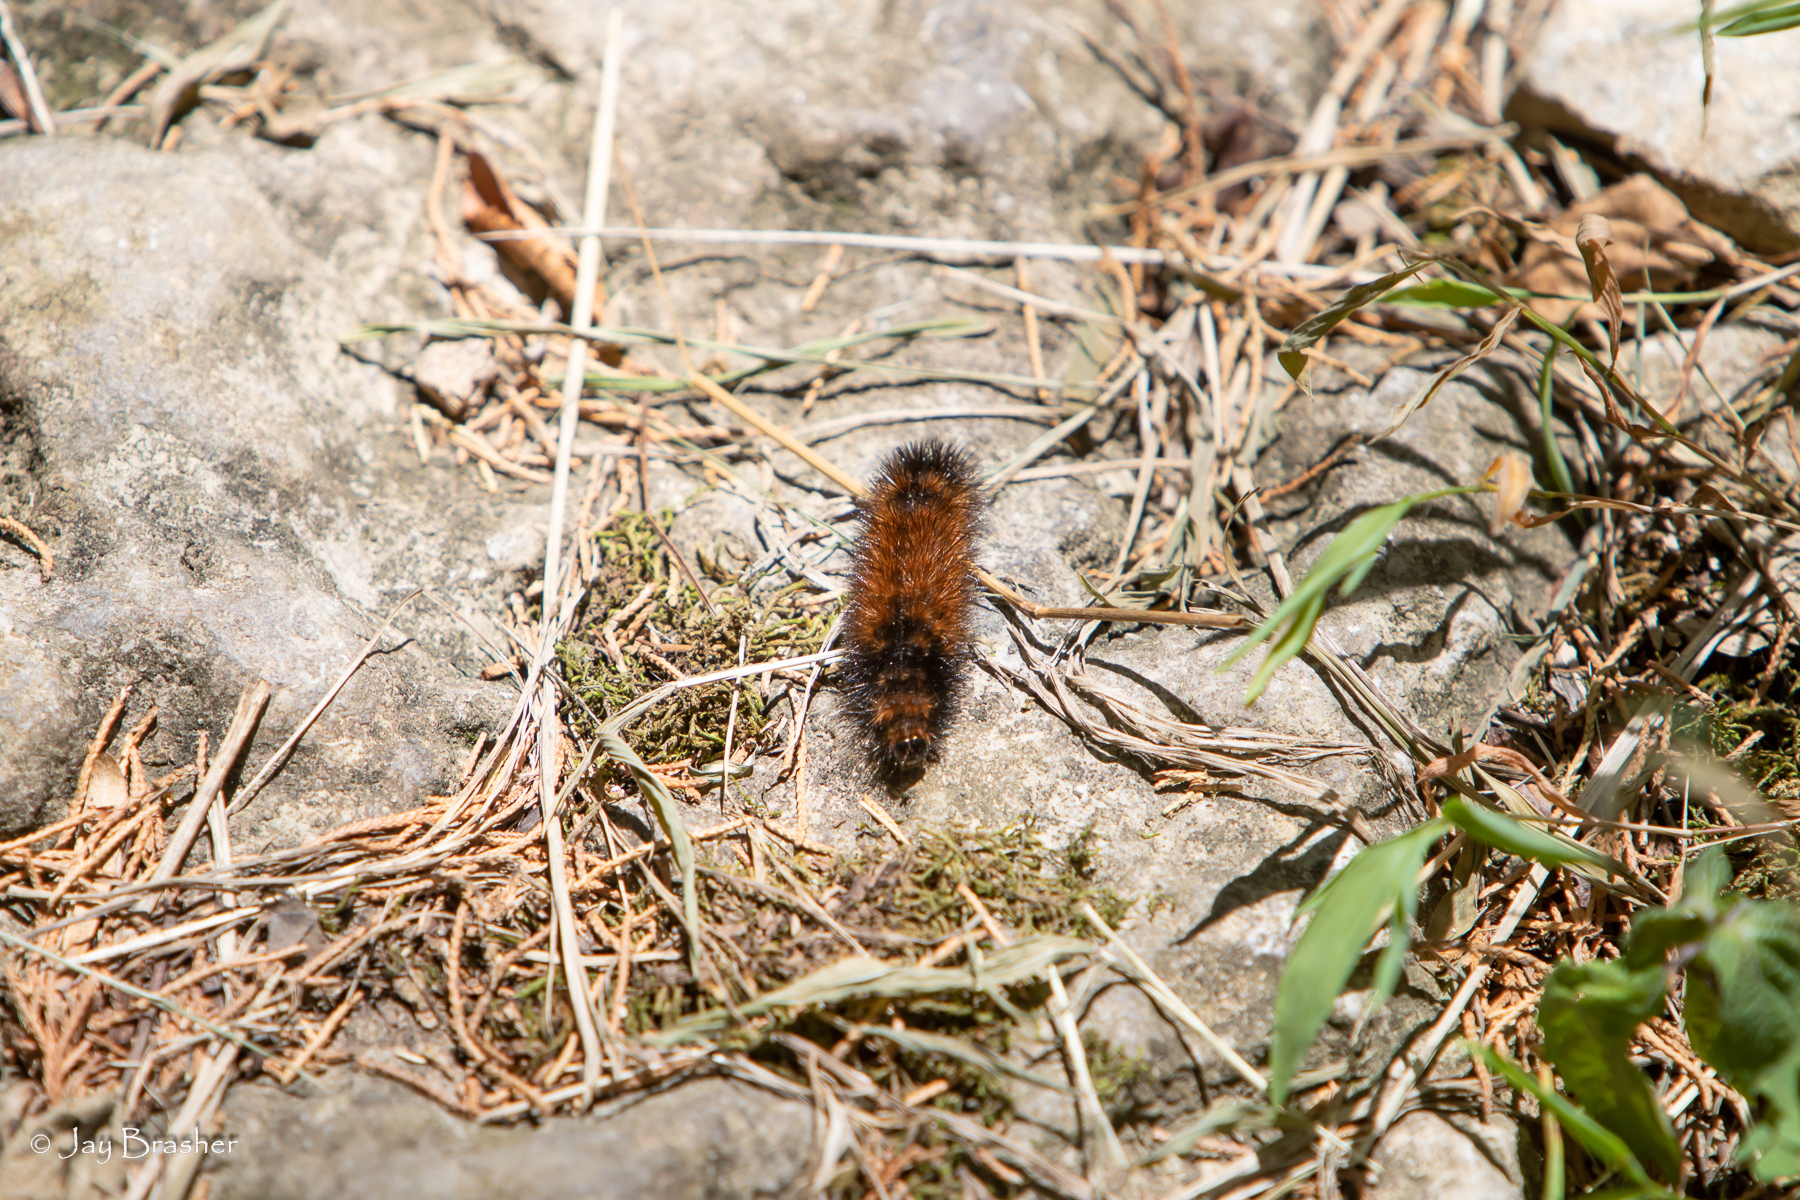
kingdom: Animalia
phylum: Arthropoda
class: Insecta
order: Lepidoptera
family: Erebidae
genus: Pyrrharctia
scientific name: Pyrrharctia isabella
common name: Isabella tiger moth
